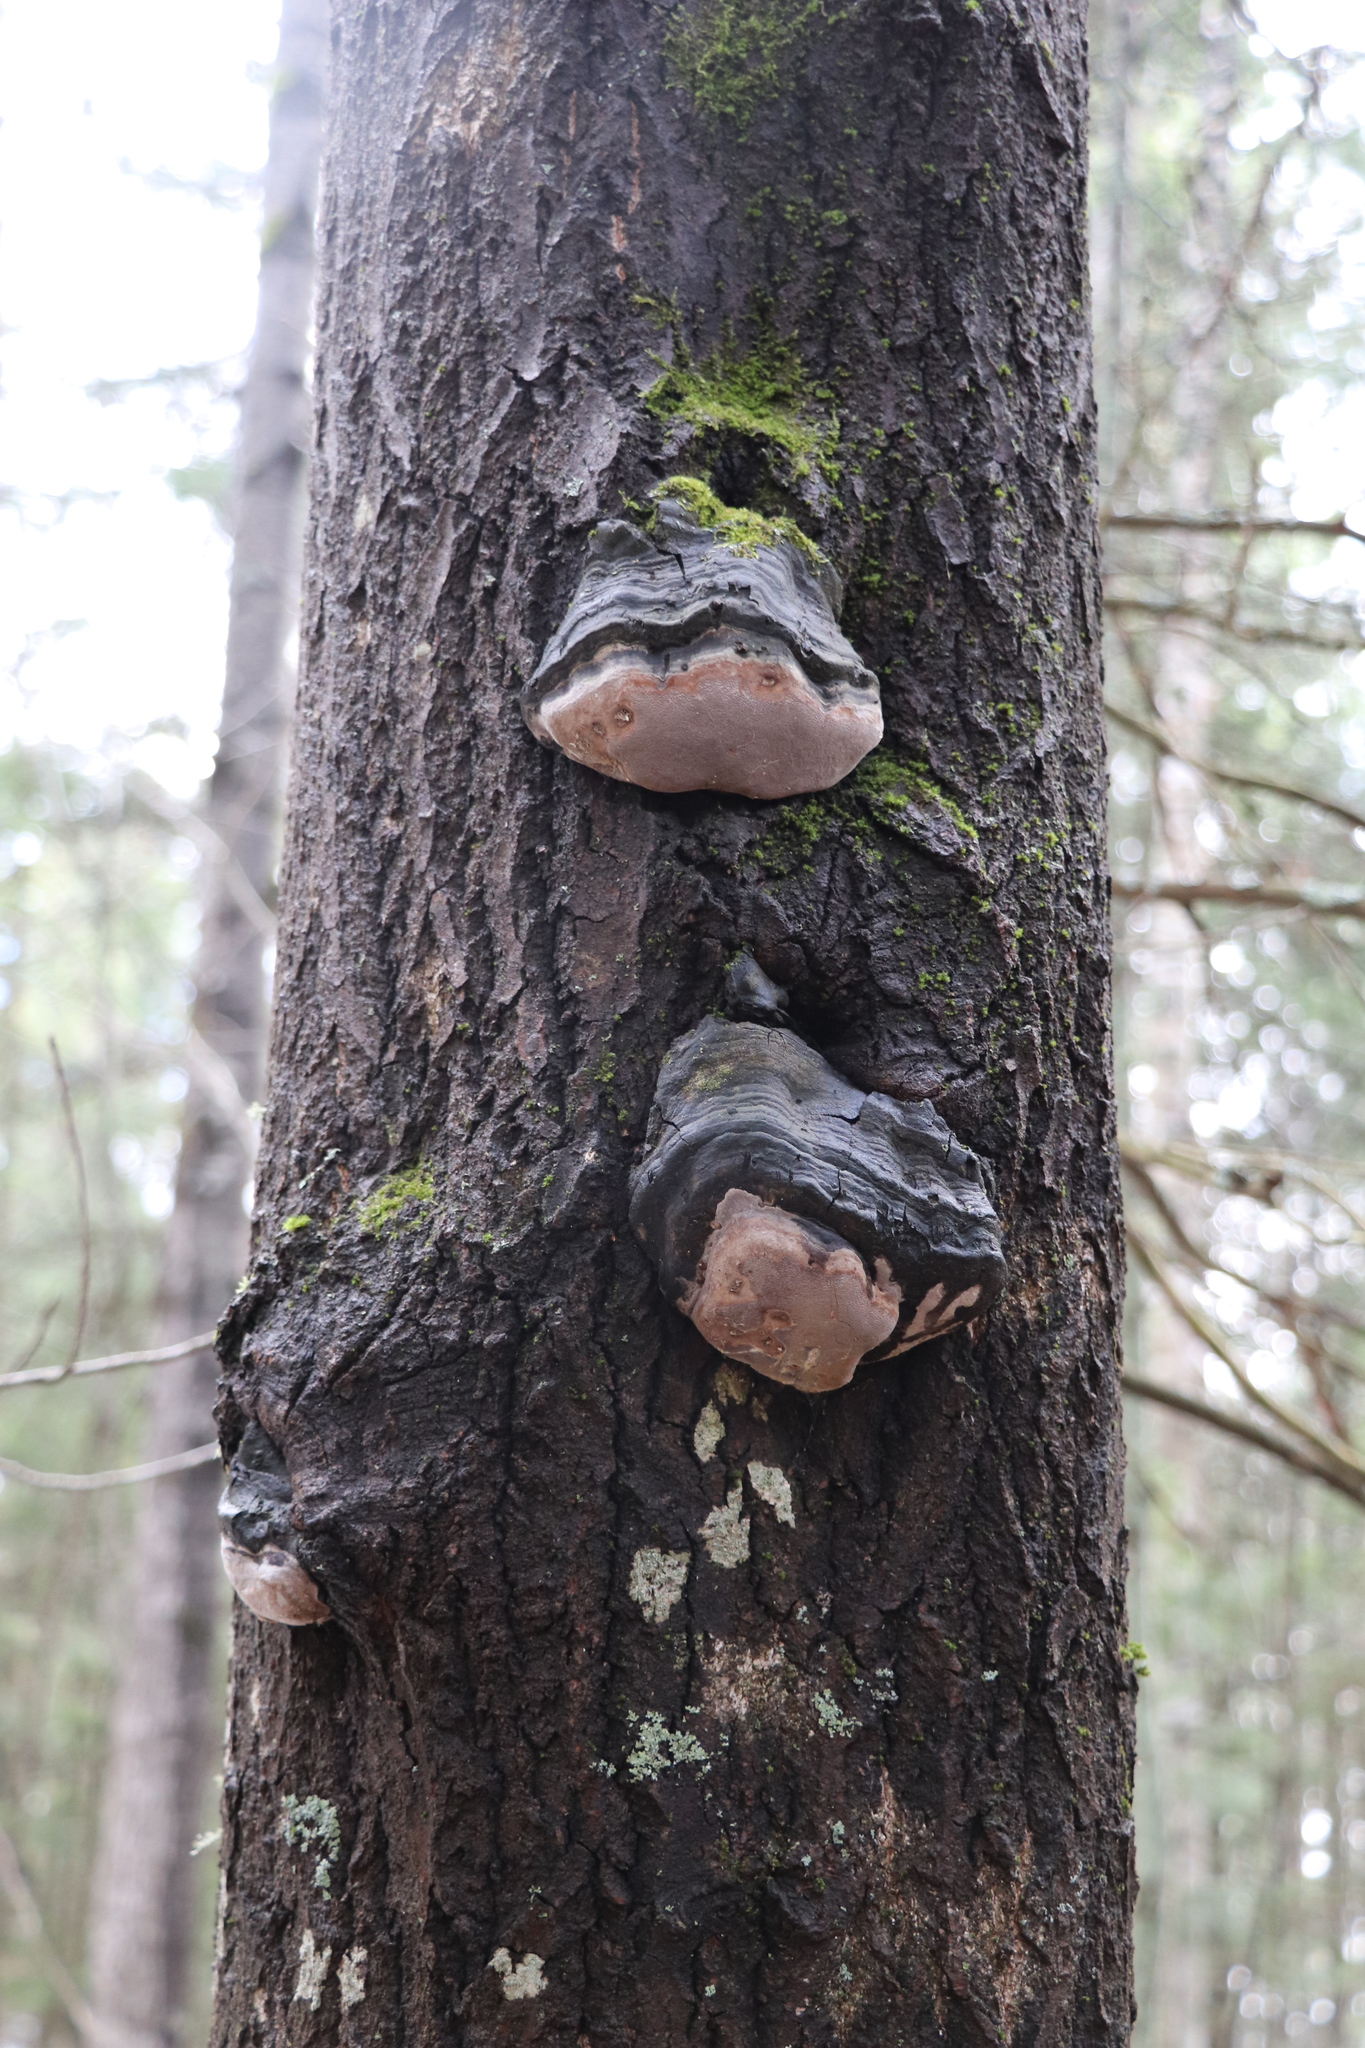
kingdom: Fungi
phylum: Basidiomycota
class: Agaricomycetes
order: Hymenochaetales
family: Hymenochaetaceae
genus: Phellinus
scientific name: Phellinus tremulae
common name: Aspen bracket
